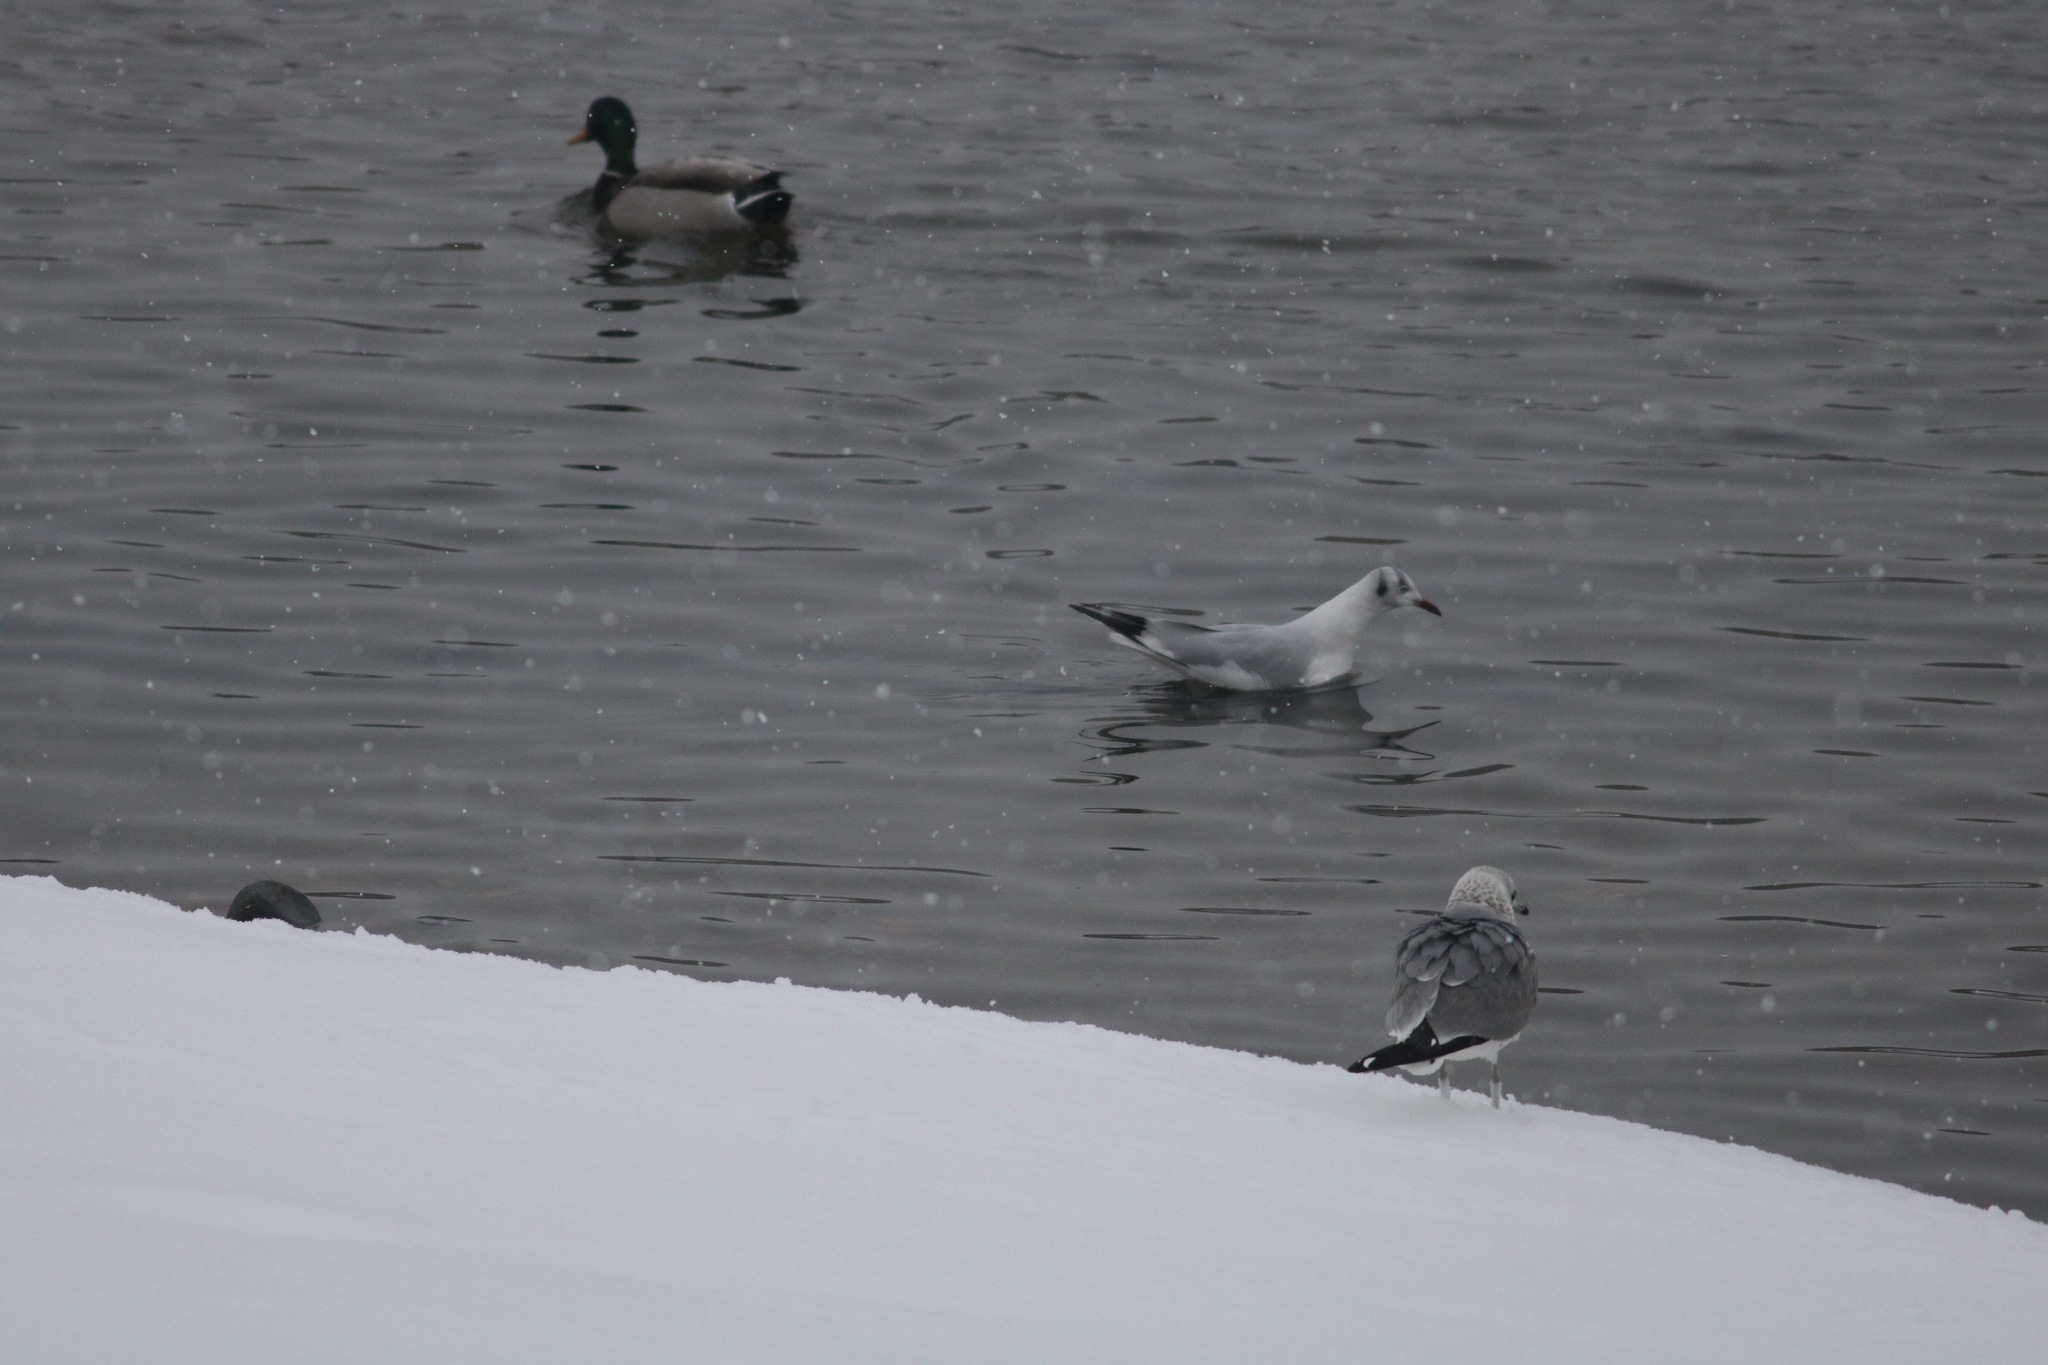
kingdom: Animalia
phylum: Chordata
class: Aves
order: Charadriiformes
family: Laridae
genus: Chroicocephalus
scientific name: Chroicocephalus ridibundus
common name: Black-headed gull
